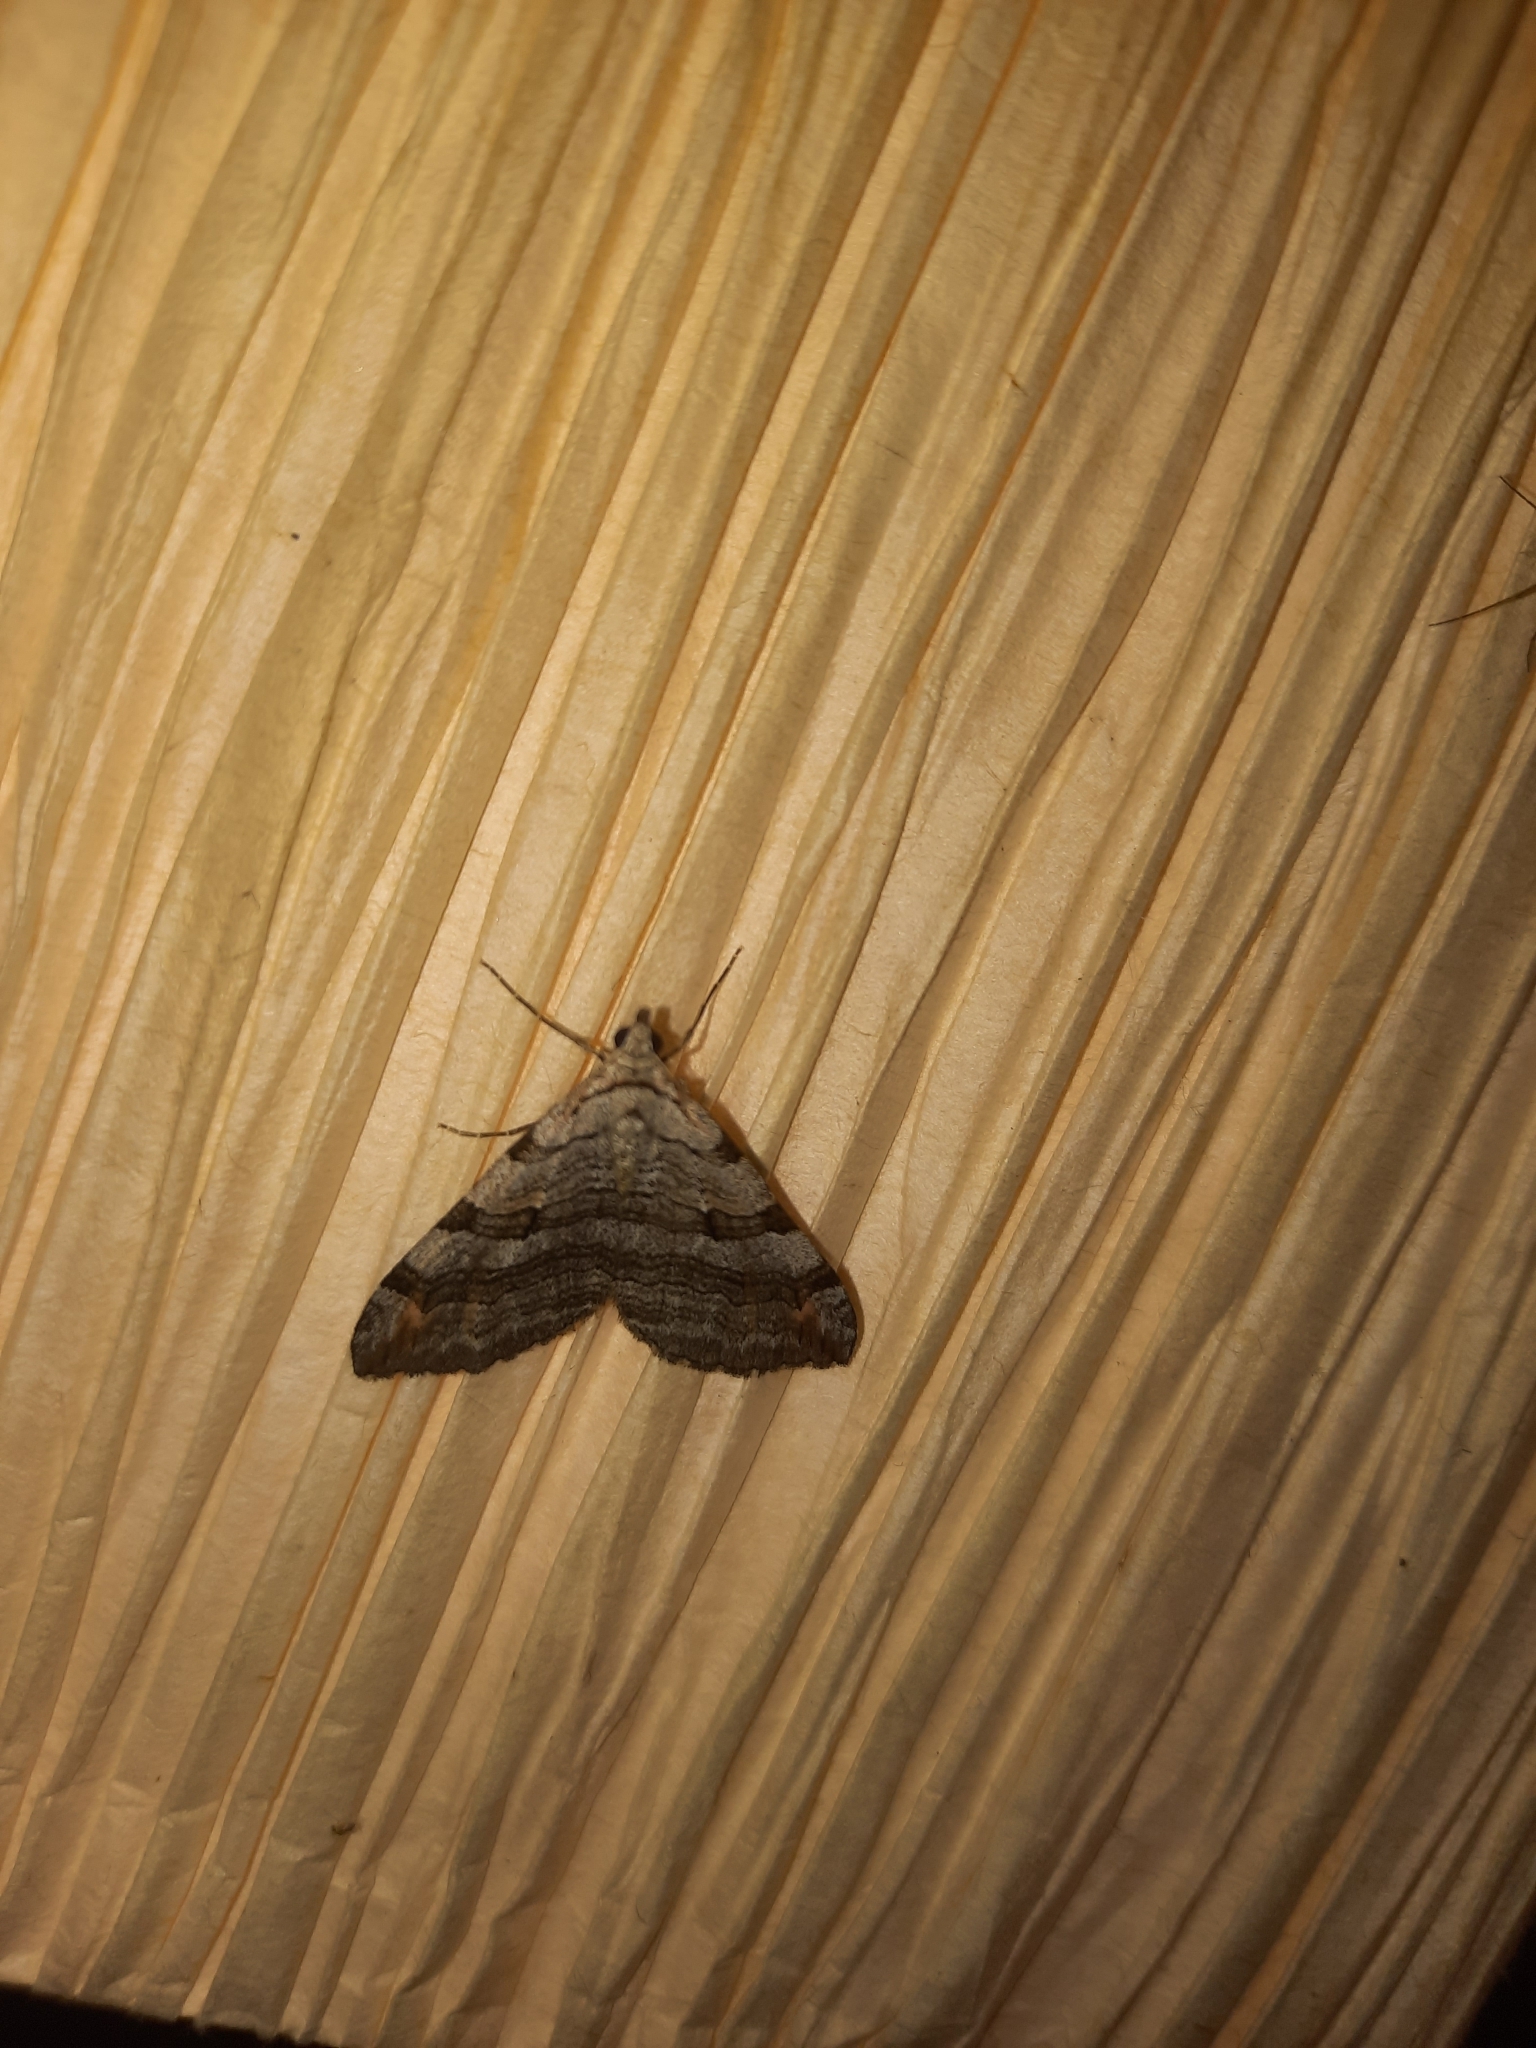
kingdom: Animalia
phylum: Arthropoda
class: Insecta
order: Lepidoptera
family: Geometridae
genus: Aplocera
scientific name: Aplocera plagiata
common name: Treble-bar
